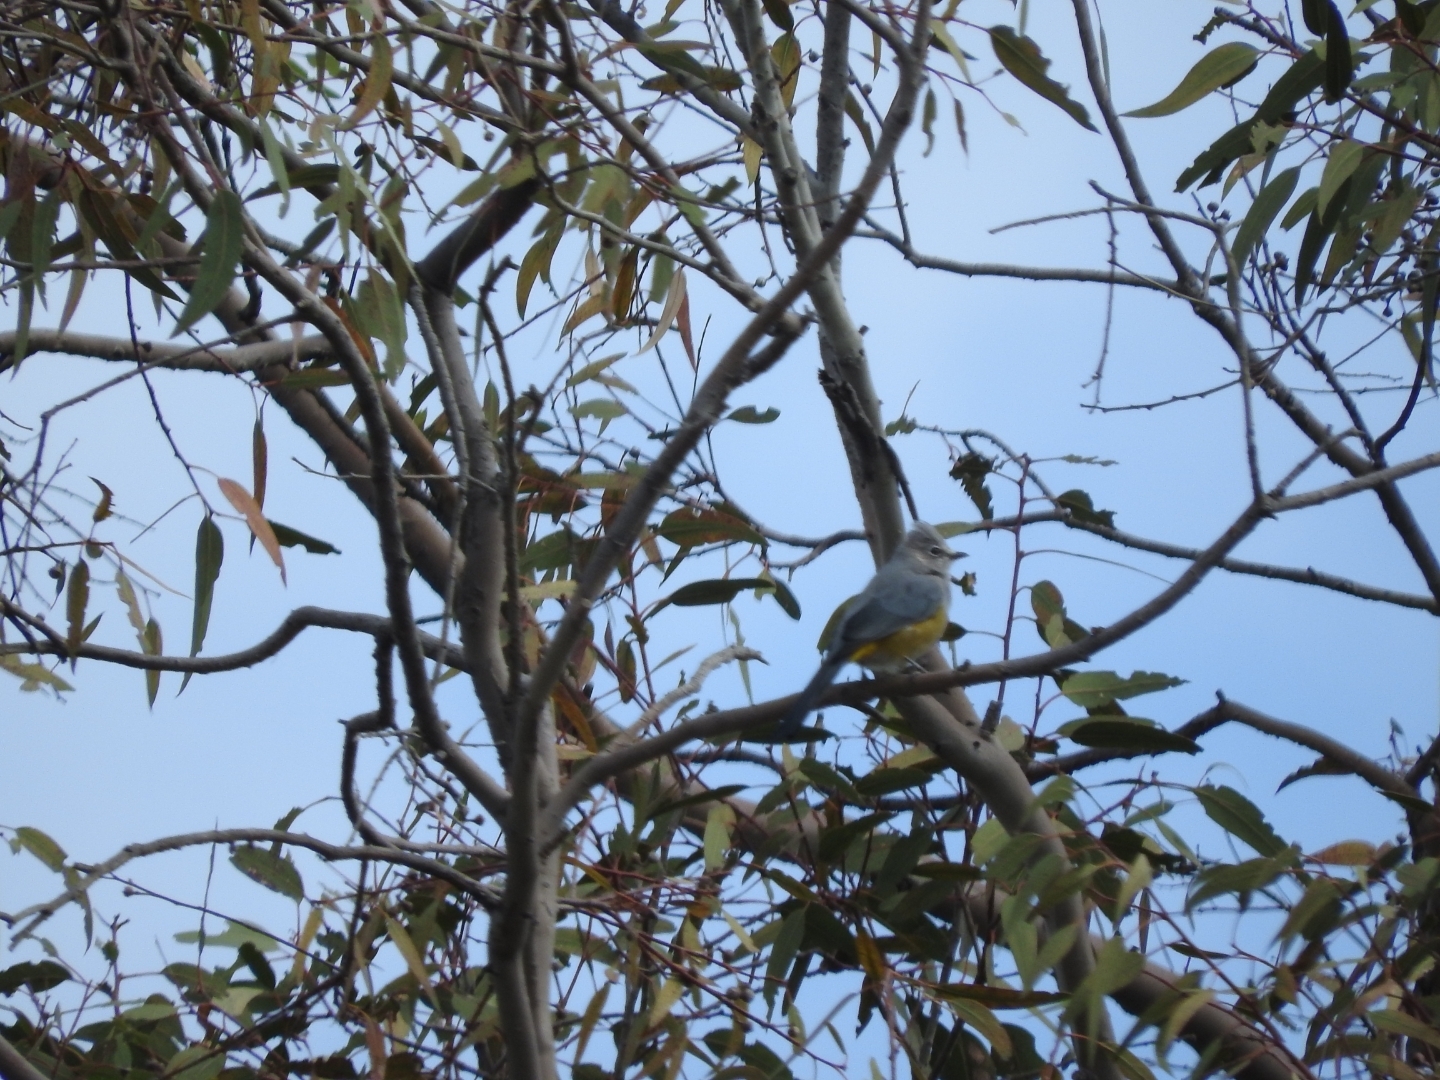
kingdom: Animalia
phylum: Chordata
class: Aves
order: Passeriformes
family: Ptilogonatidae
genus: Ptilogonys
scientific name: Ptilogonys cinereus
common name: Gray silky-flycatcher
